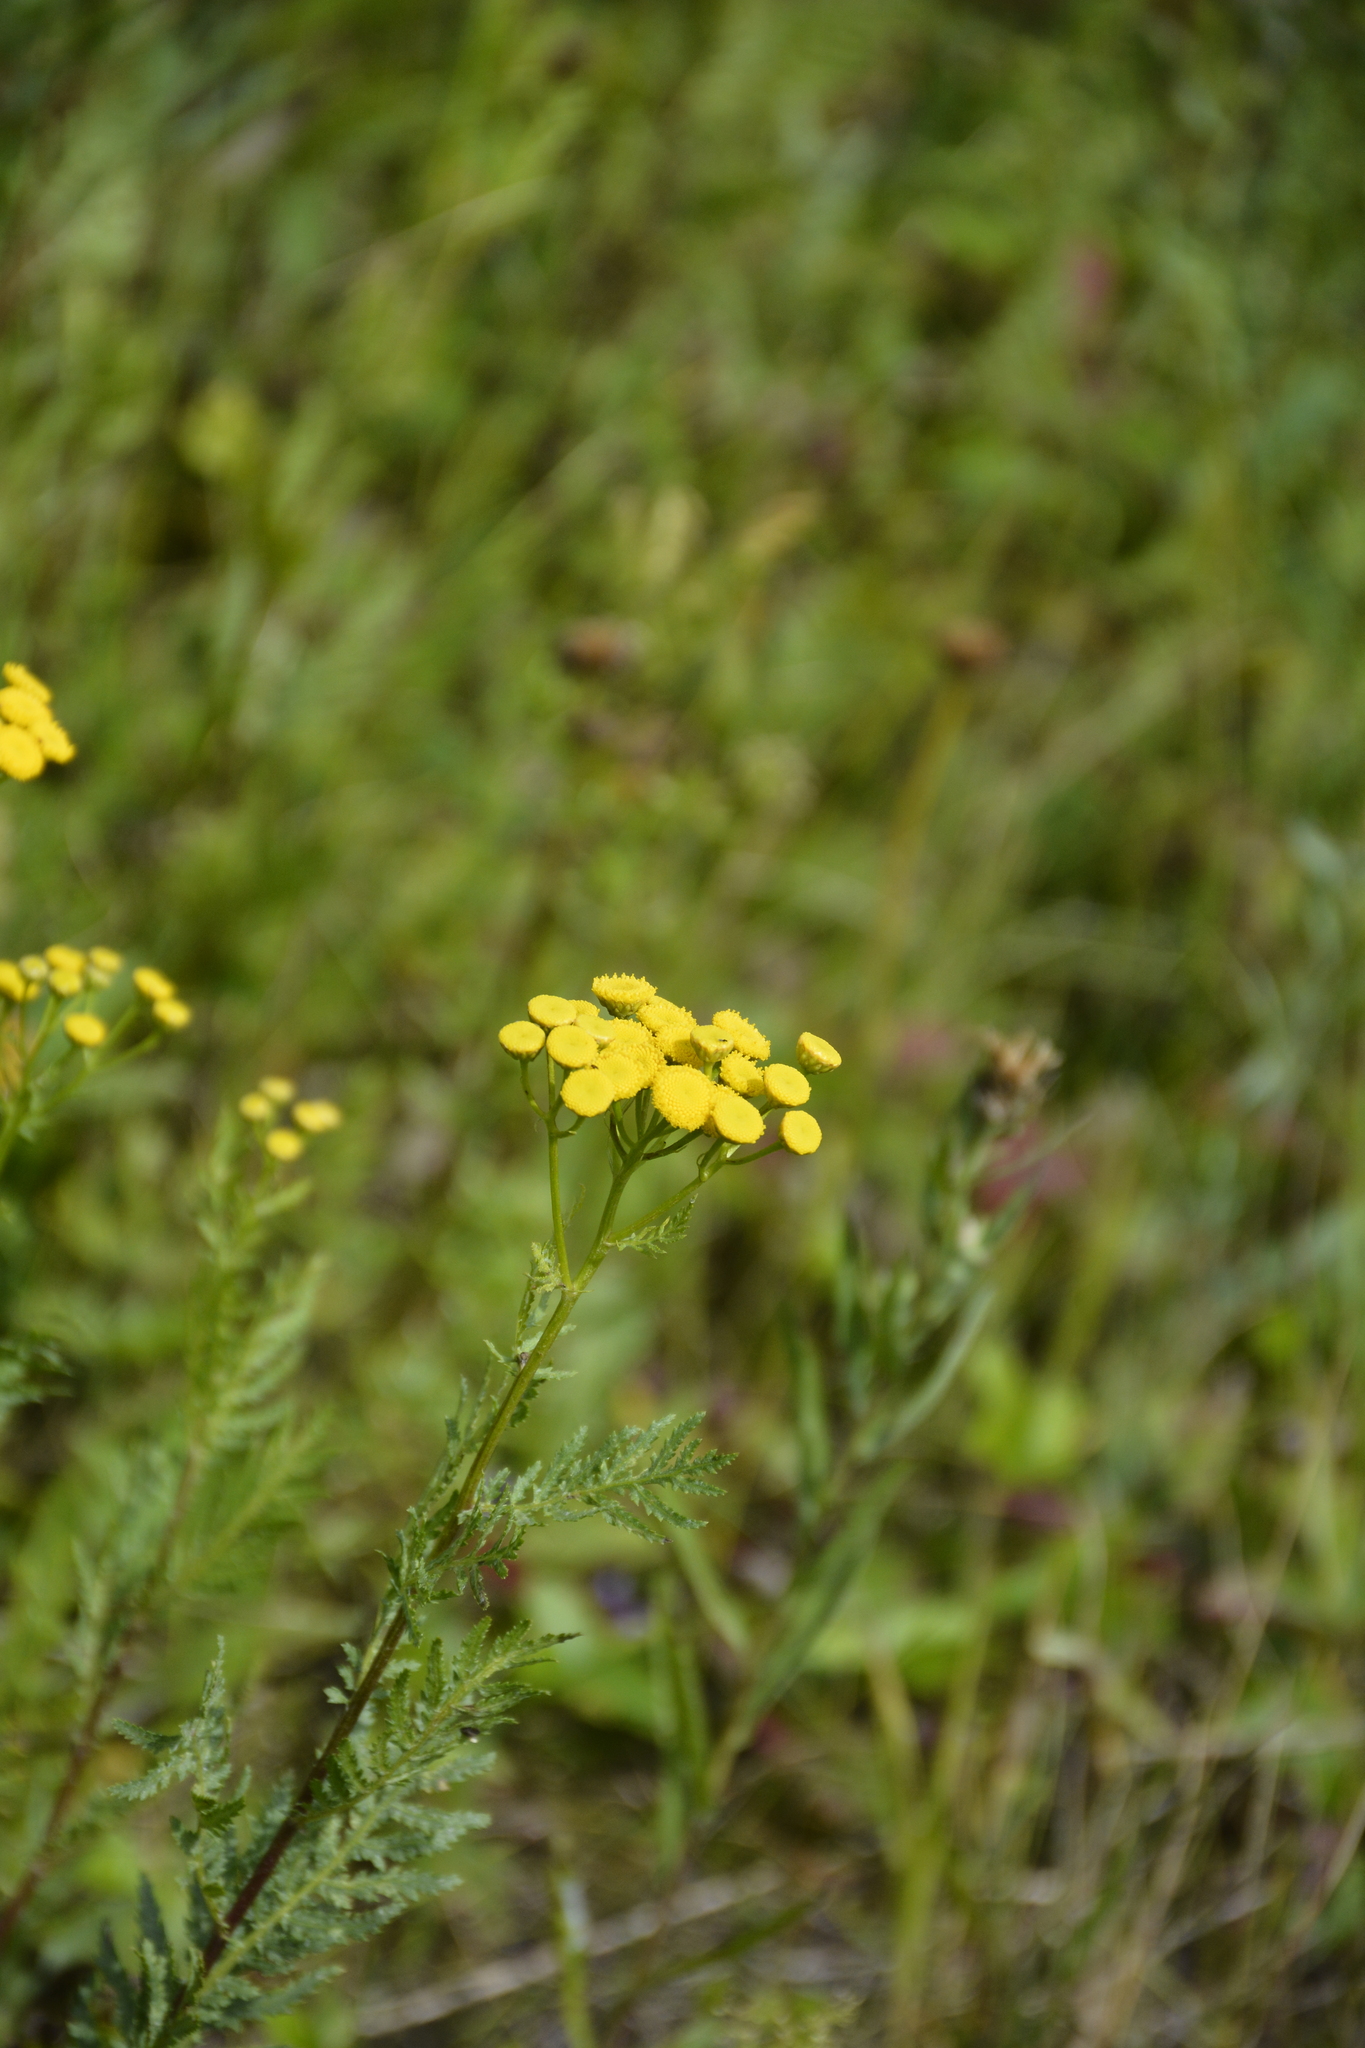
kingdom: Plantae
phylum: Tracheophyta
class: Magnoliopsida
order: Asterales
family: Asteraceae
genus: Tanacetum
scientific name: Tanacetum vulgare
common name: Common tansy
